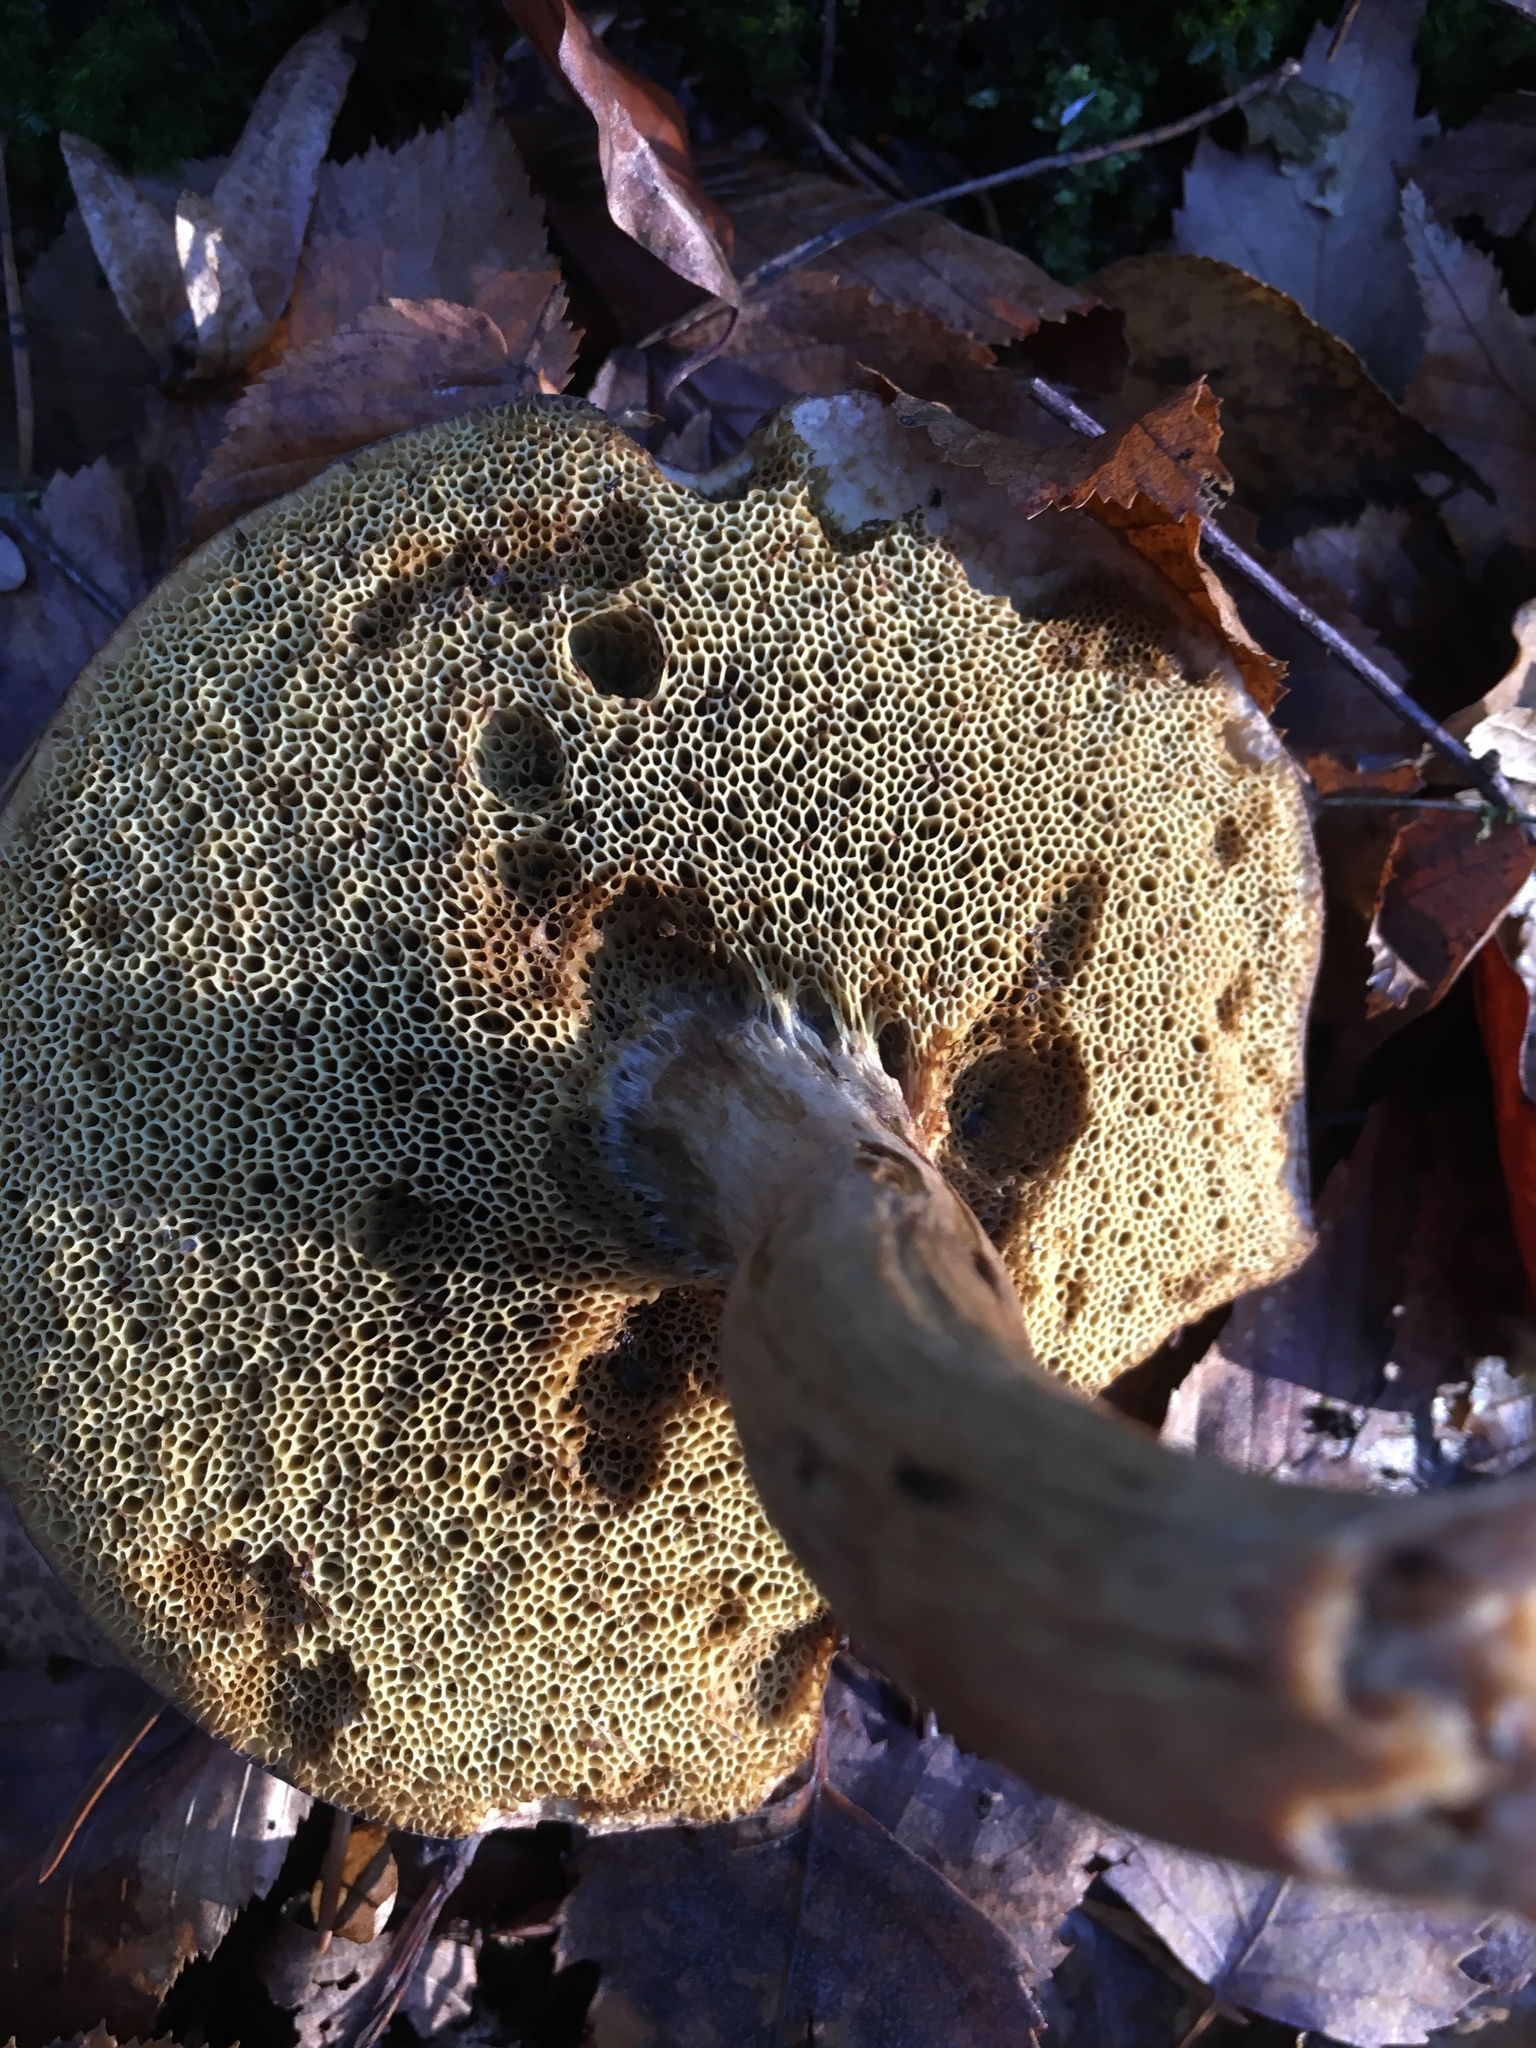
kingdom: Fungi
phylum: Basidiomycota
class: Agaricomycetes
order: Boletales
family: Boletaceae
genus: Leccinum
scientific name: Leccinum scabrum
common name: Blushing bolete
